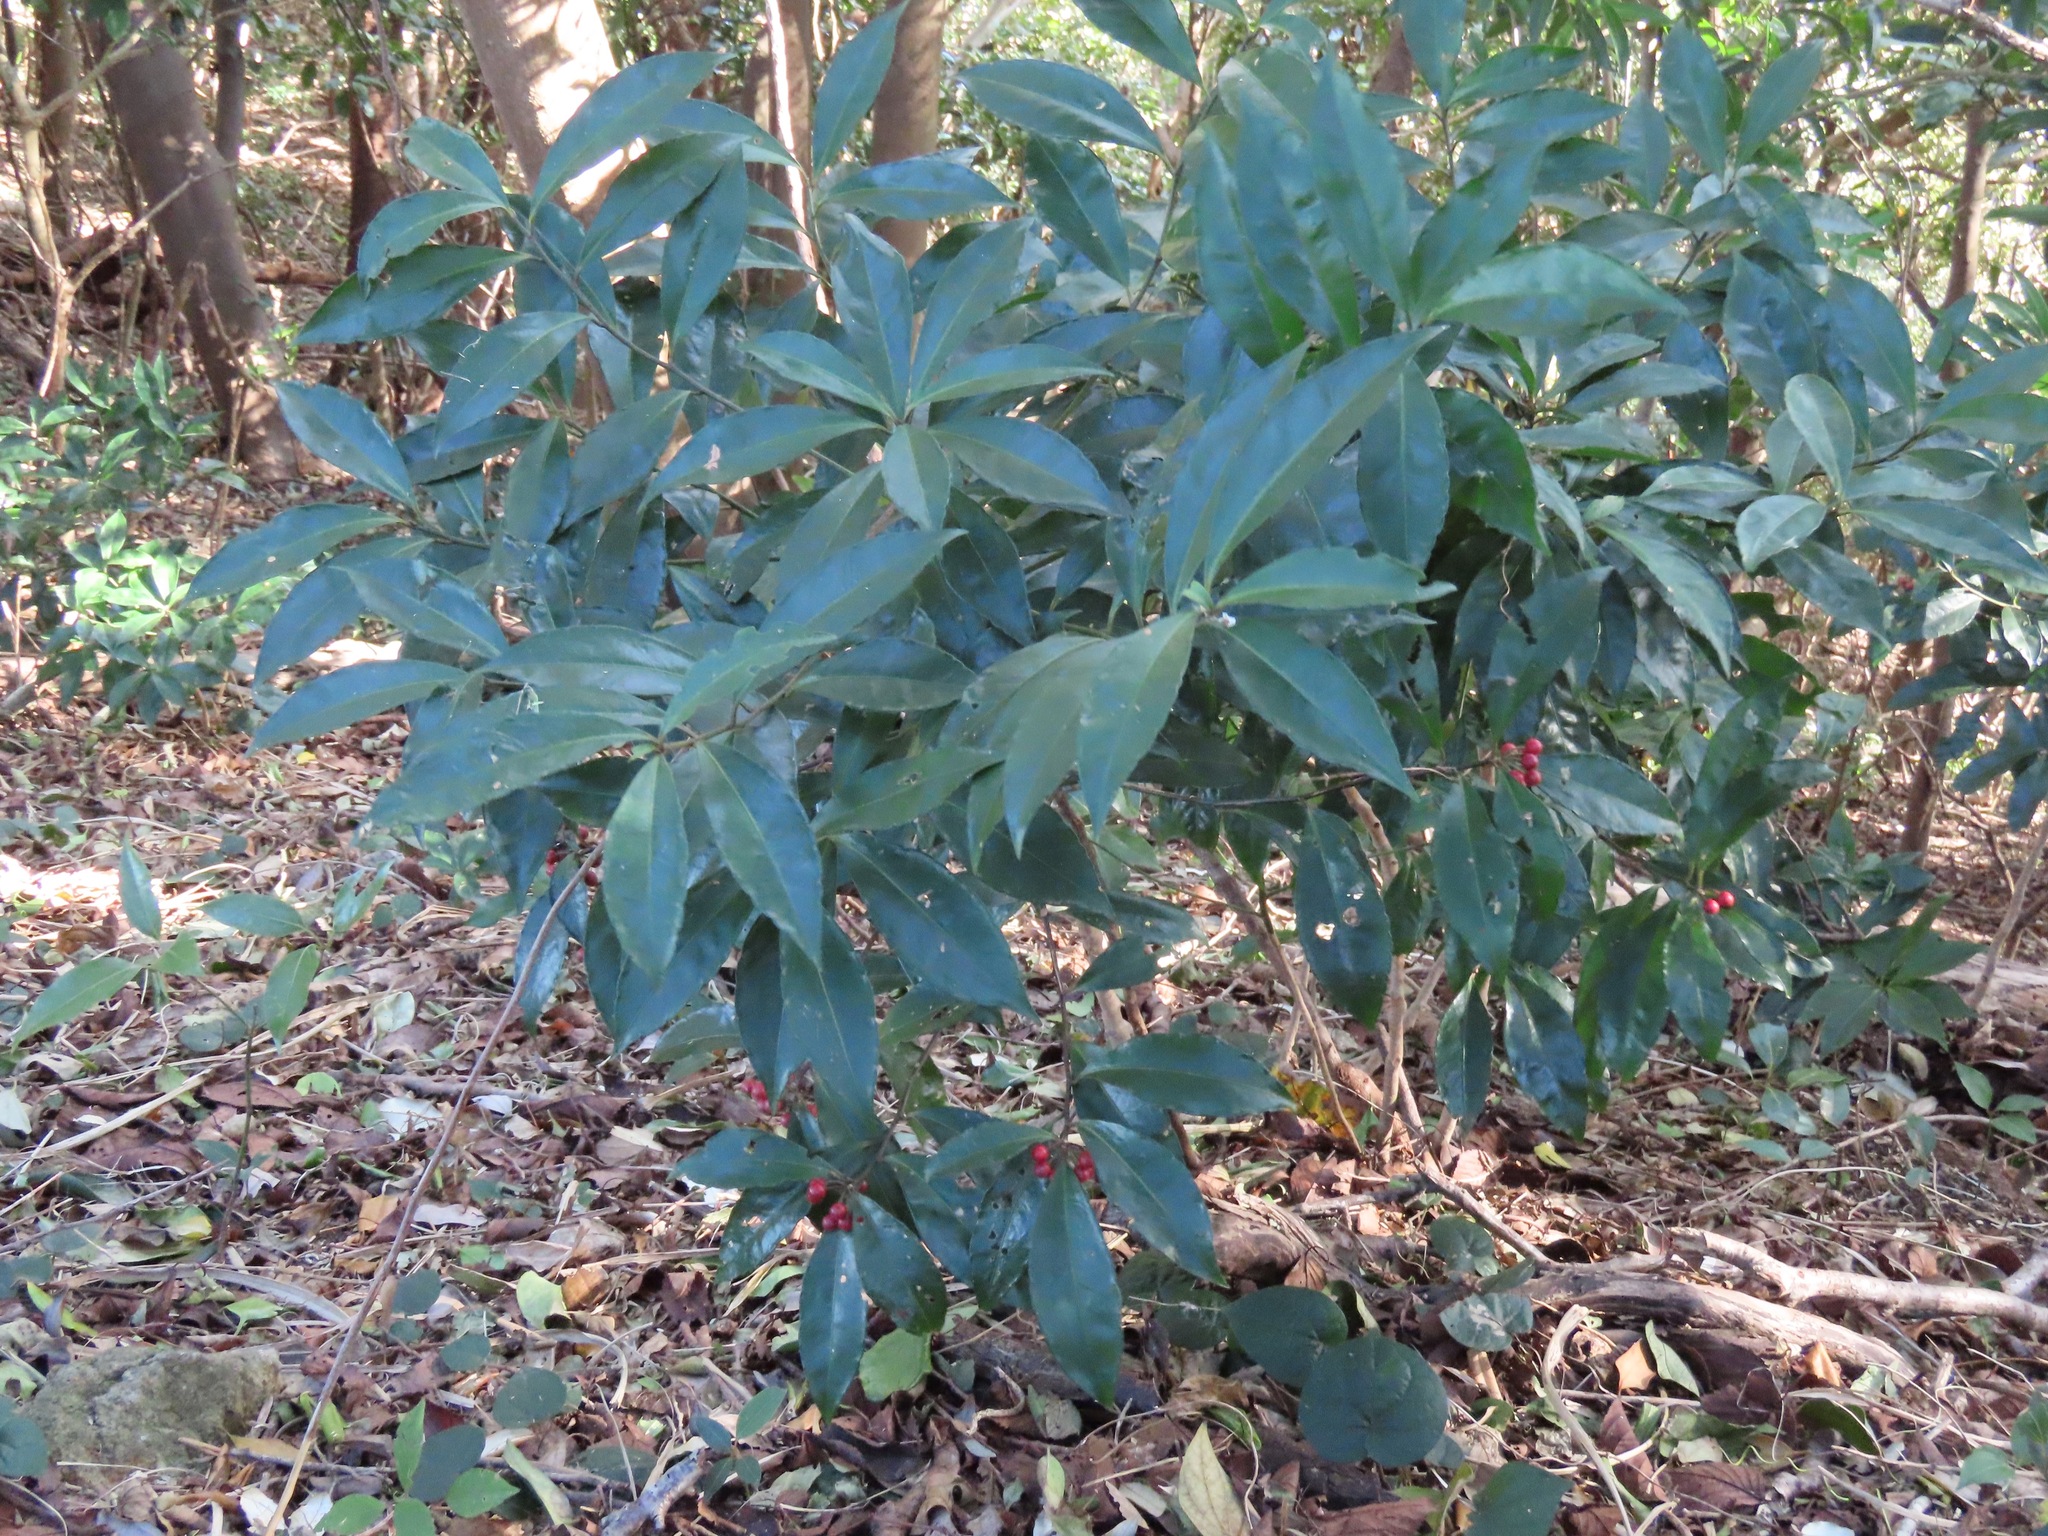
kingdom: Plantae
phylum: Tracheophyta
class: Magnoliopsida
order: Ericales
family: Primulaceae
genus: Ardisia
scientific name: Ardisia crenata
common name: Hen's eyes
